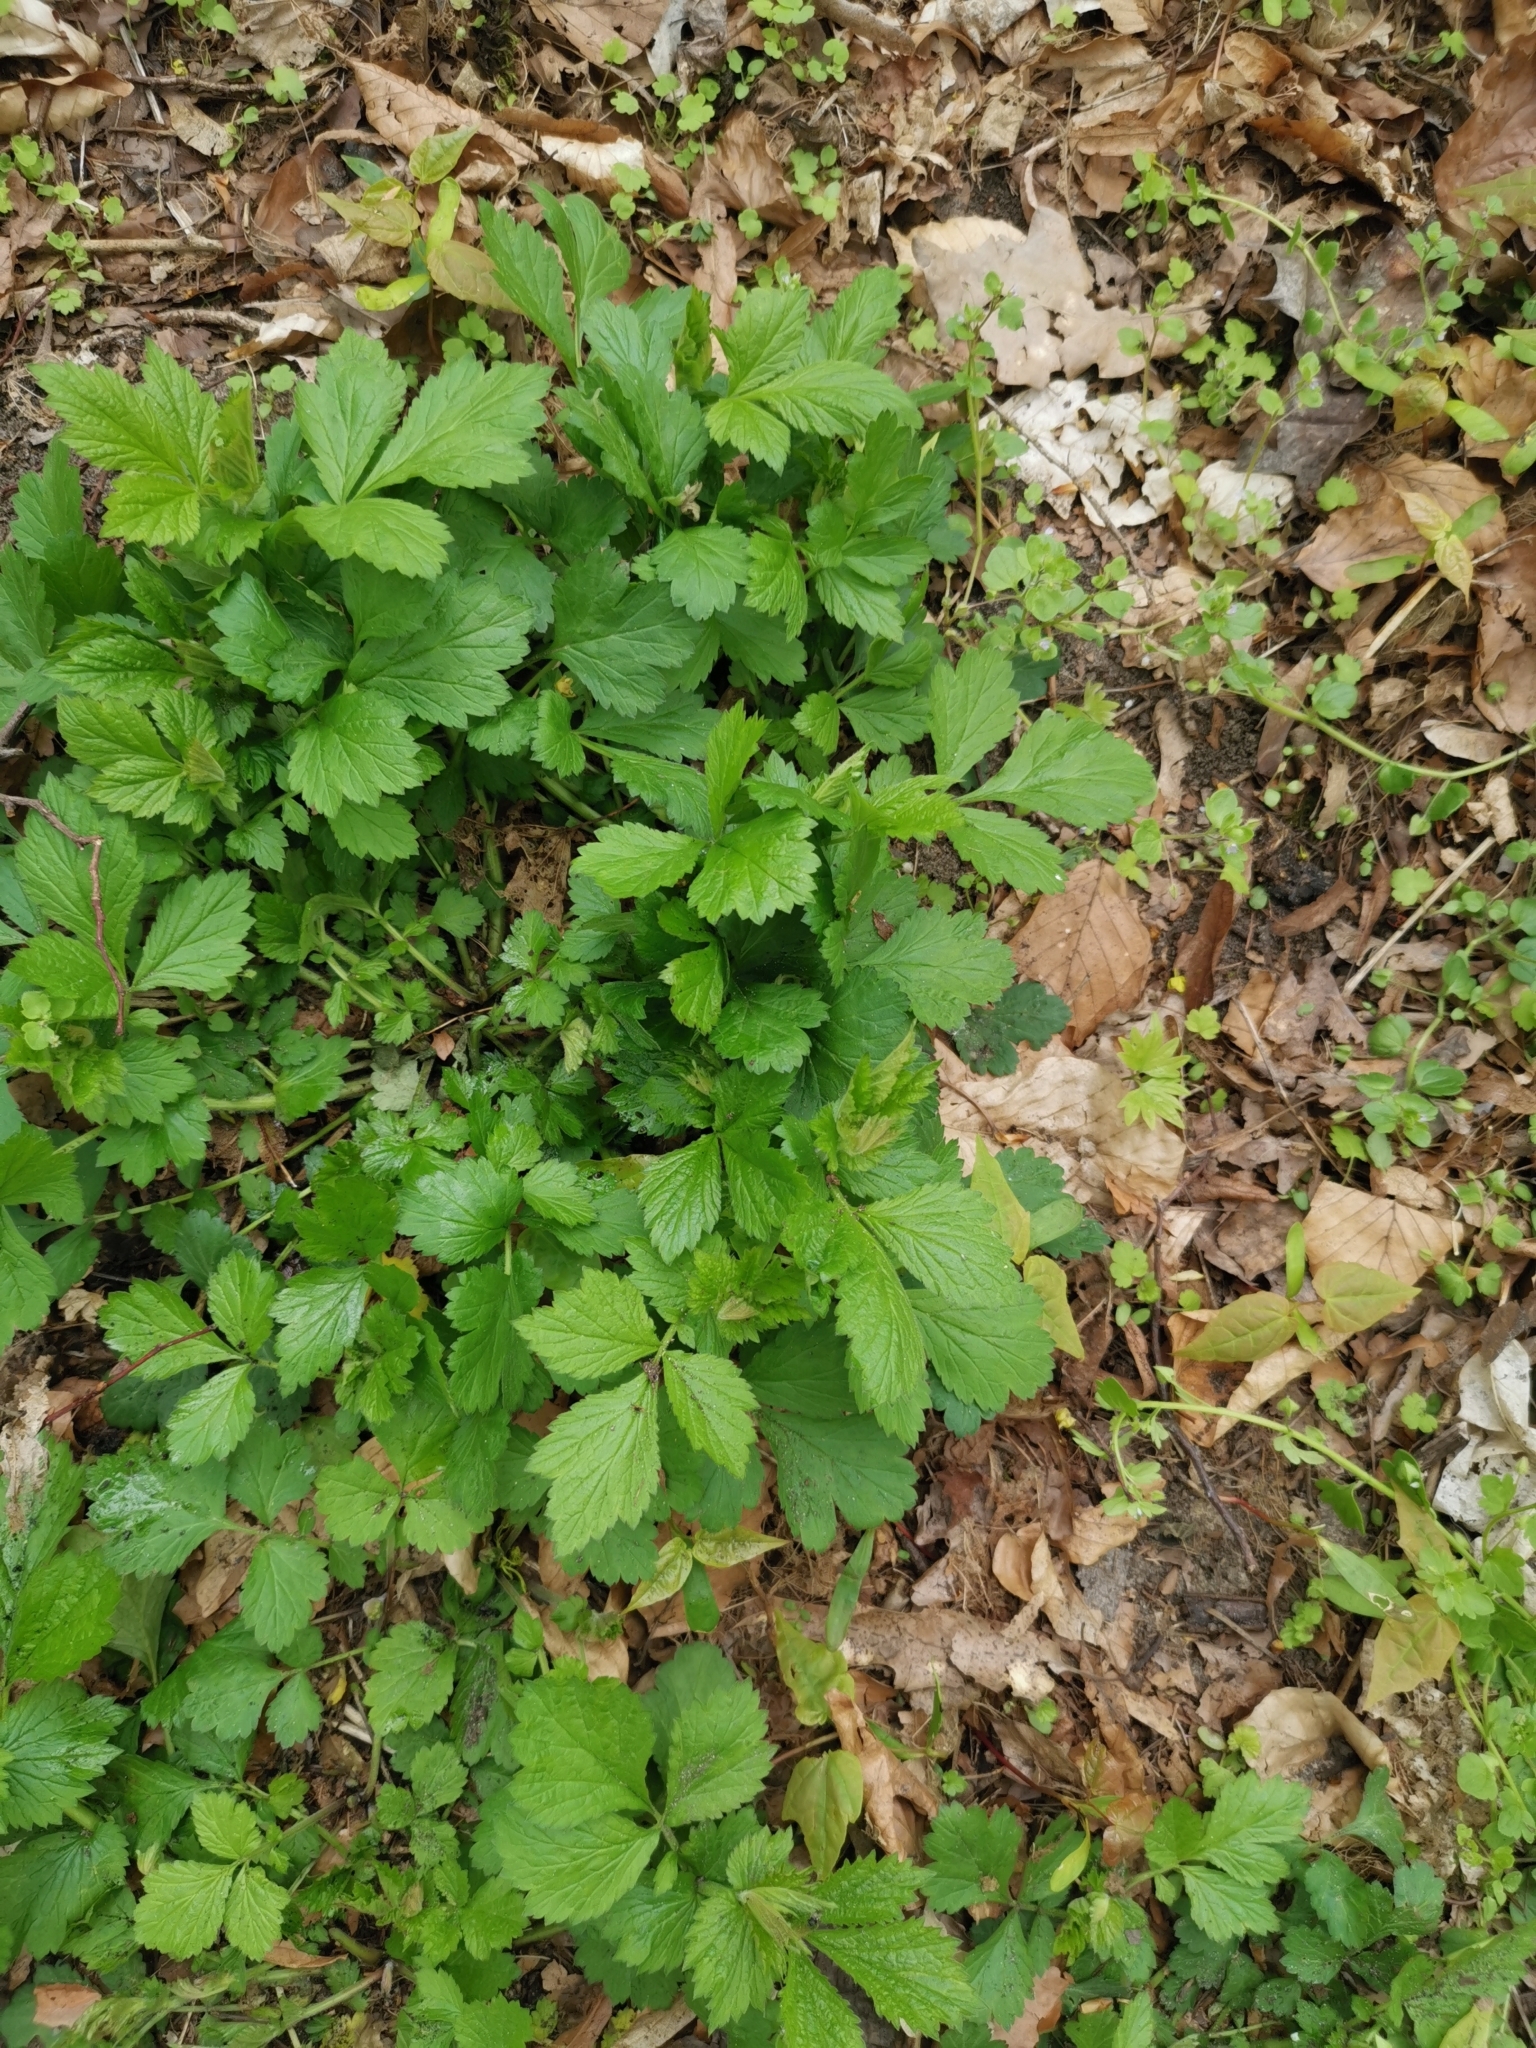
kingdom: Plantae
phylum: Tracheophyta
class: Magnoliopsida
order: Rosales
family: Rosaceae
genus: Geum
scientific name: Geum urbanum
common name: Wood avens
